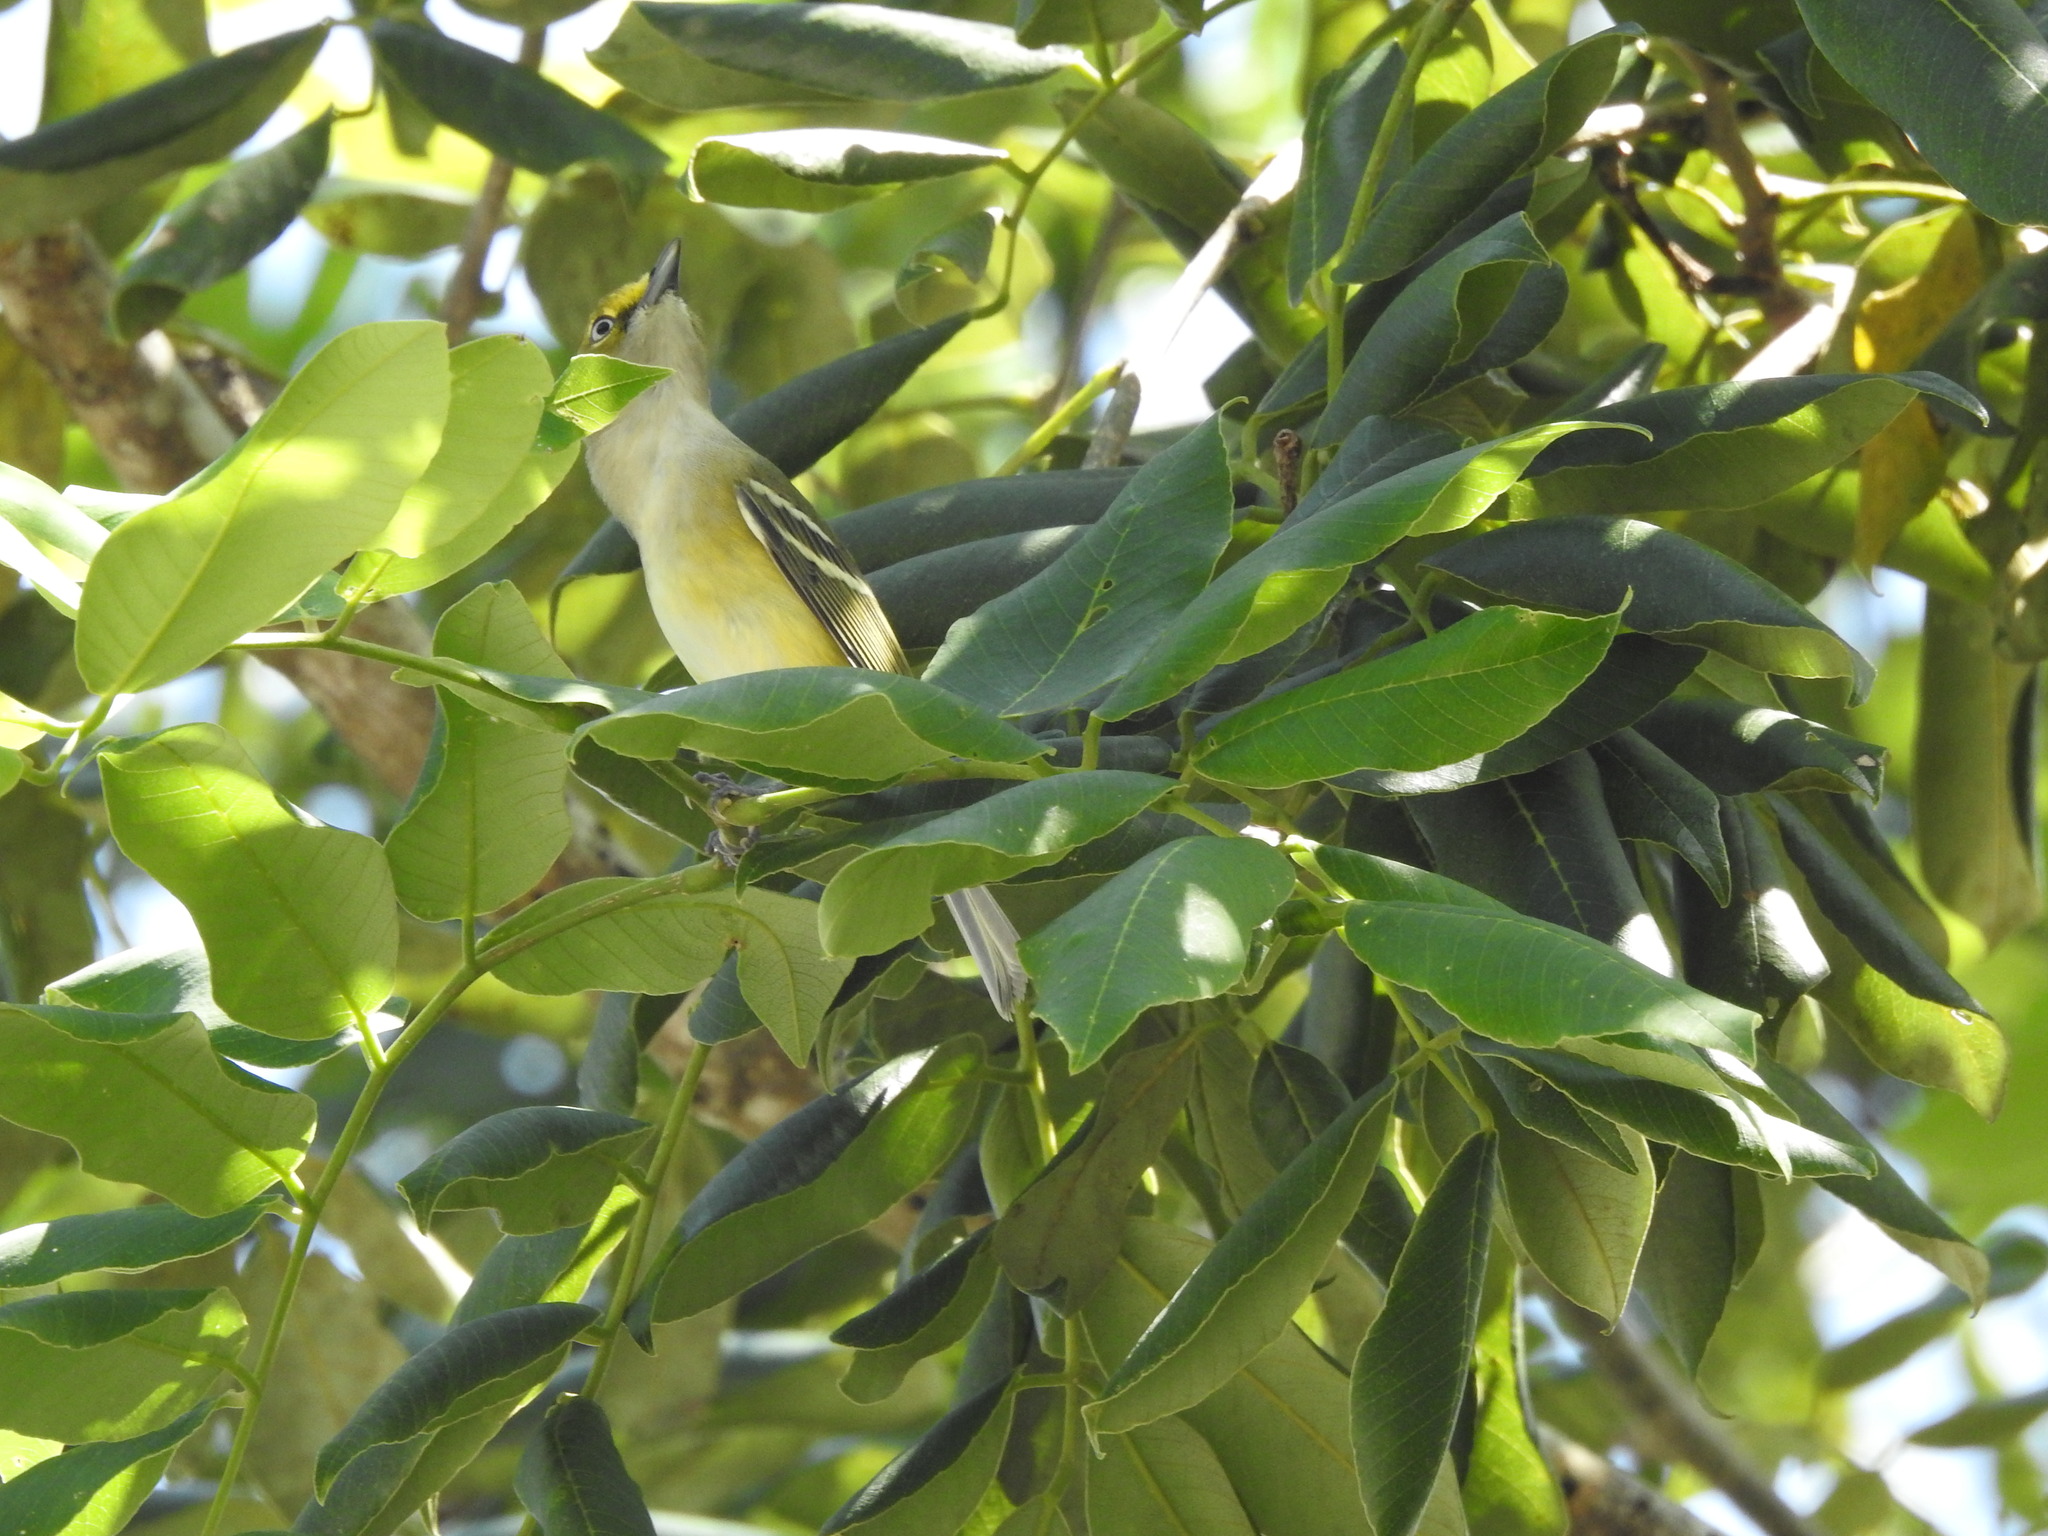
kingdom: Animalia
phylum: Chordata
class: Aves
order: Passeriformes
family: Vireonidae
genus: Vireo
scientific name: Vireo griseus
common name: White-eyed vireo
